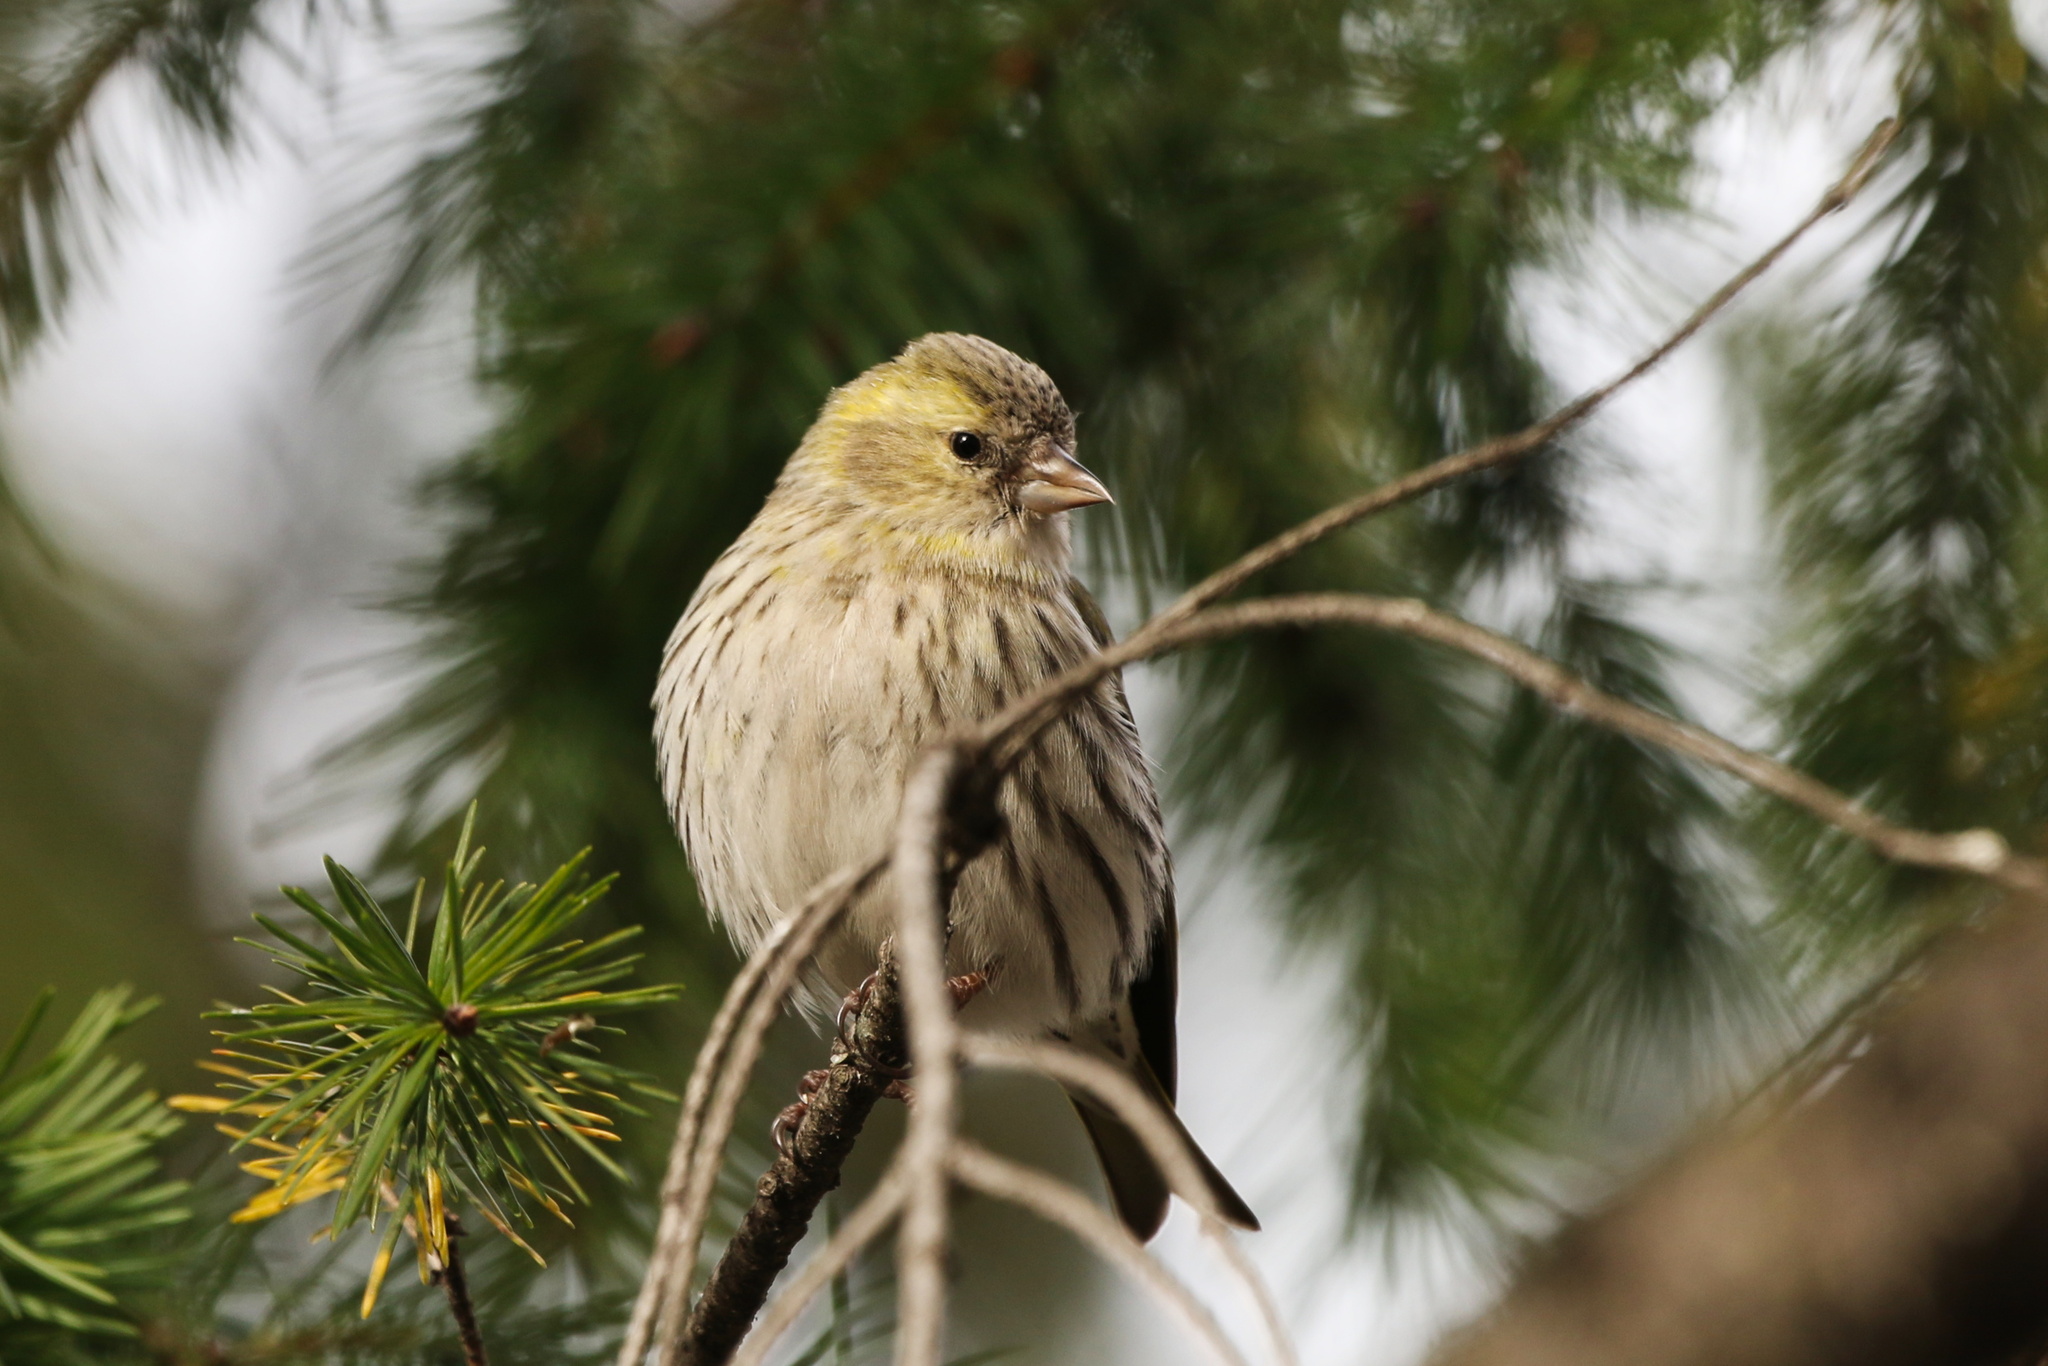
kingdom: Animalia
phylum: Chordata
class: Aves
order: Passeriformes
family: Fringillidae
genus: Spinus
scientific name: Spinus spinus
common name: Eurasian siskin
